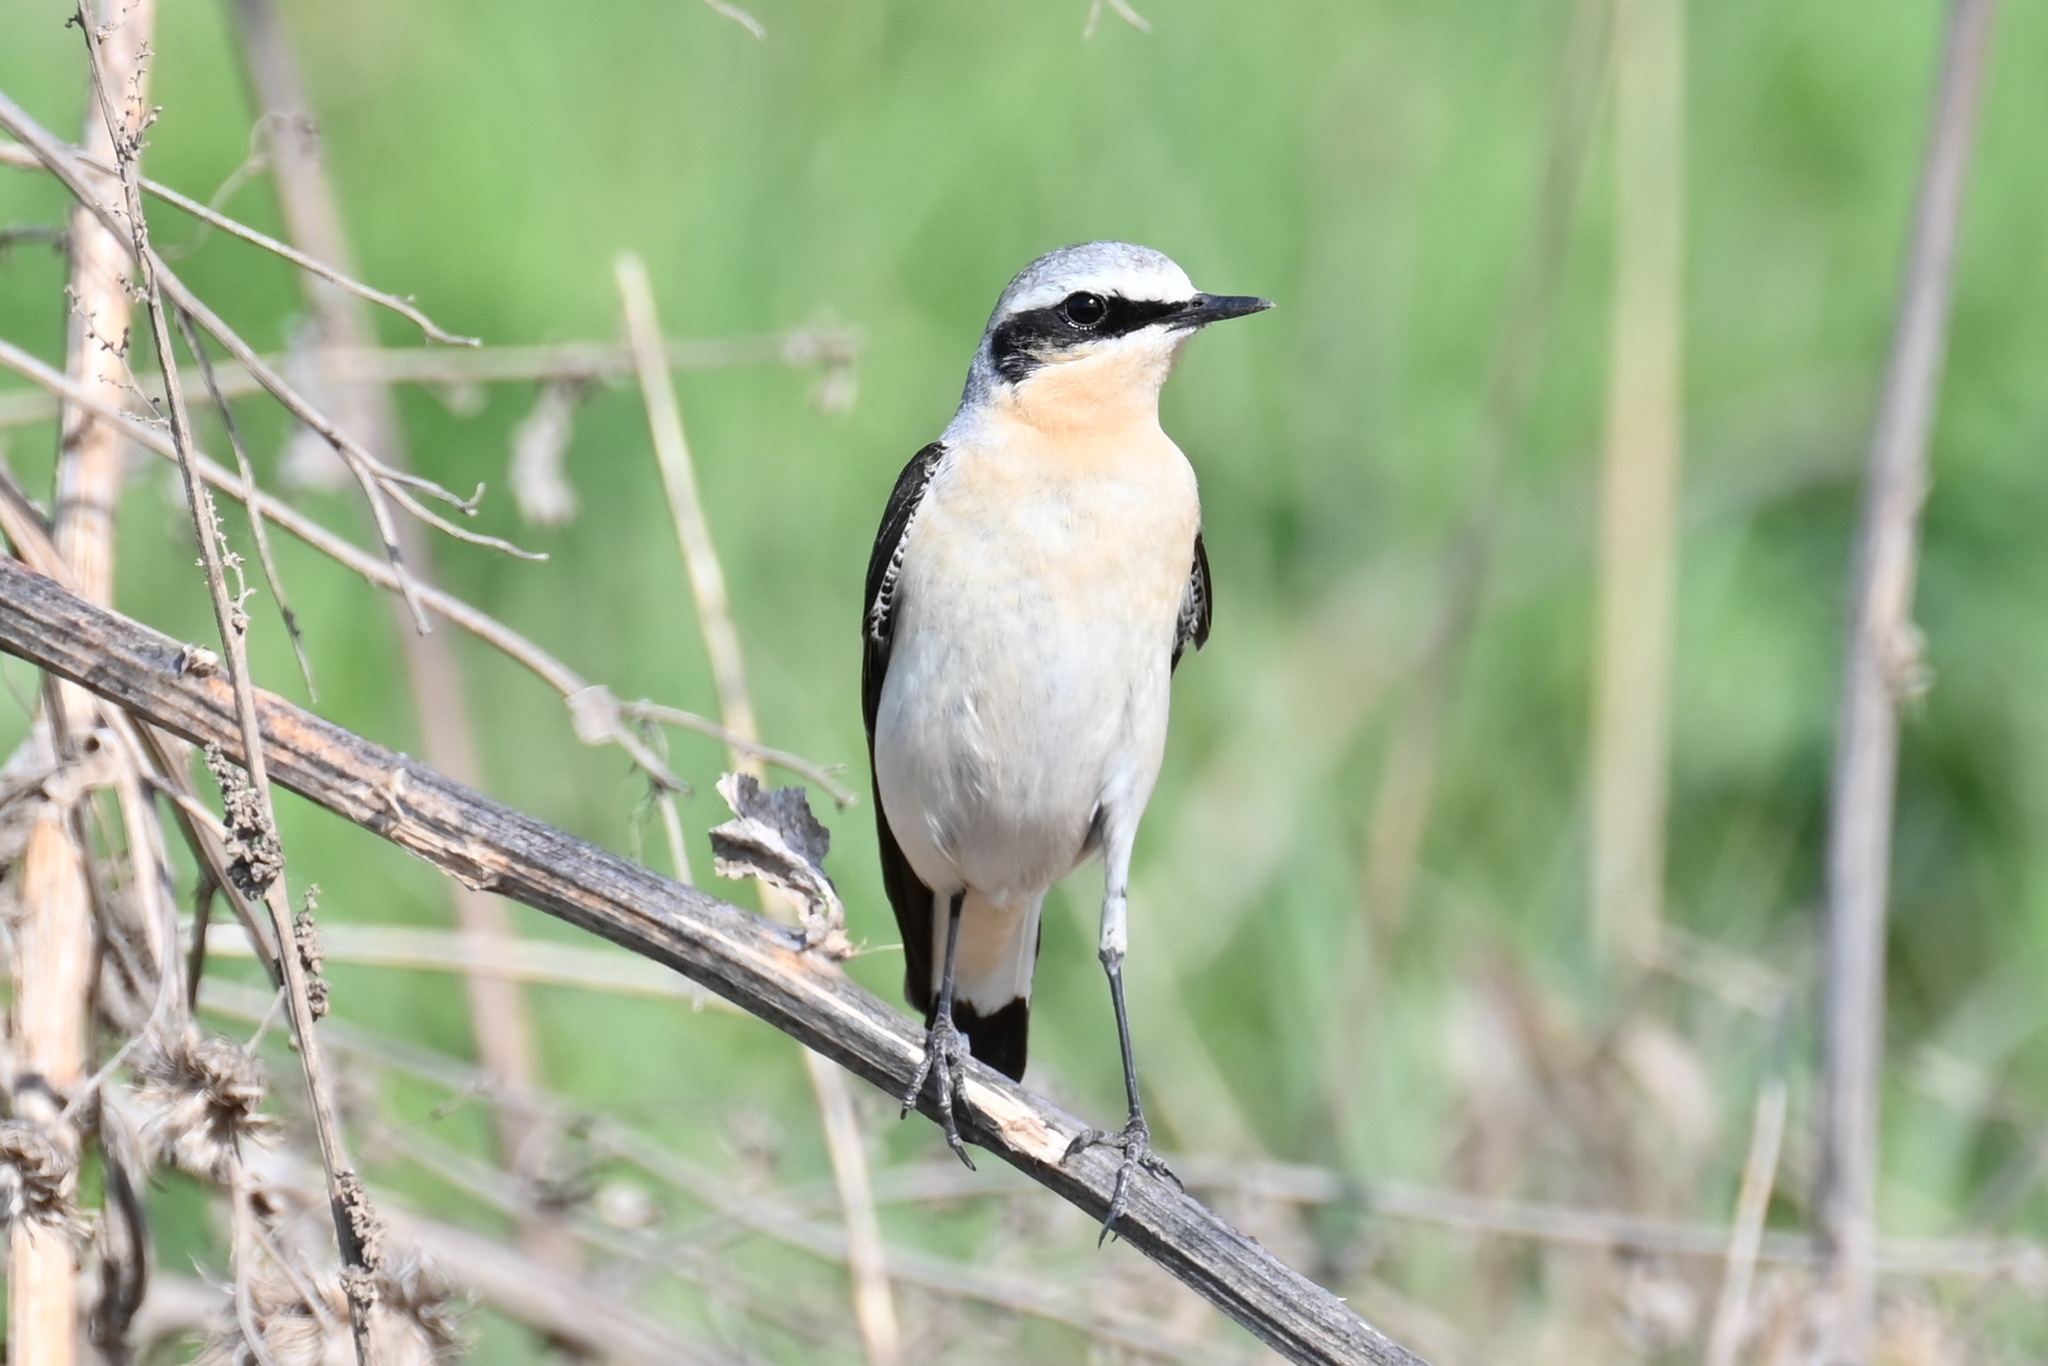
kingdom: Animalia
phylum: Chordata
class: Aves
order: Passeriformes
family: Muscicapidae
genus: Oenanthe
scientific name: Oenanthe oenanthe
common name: Northern wheatear
